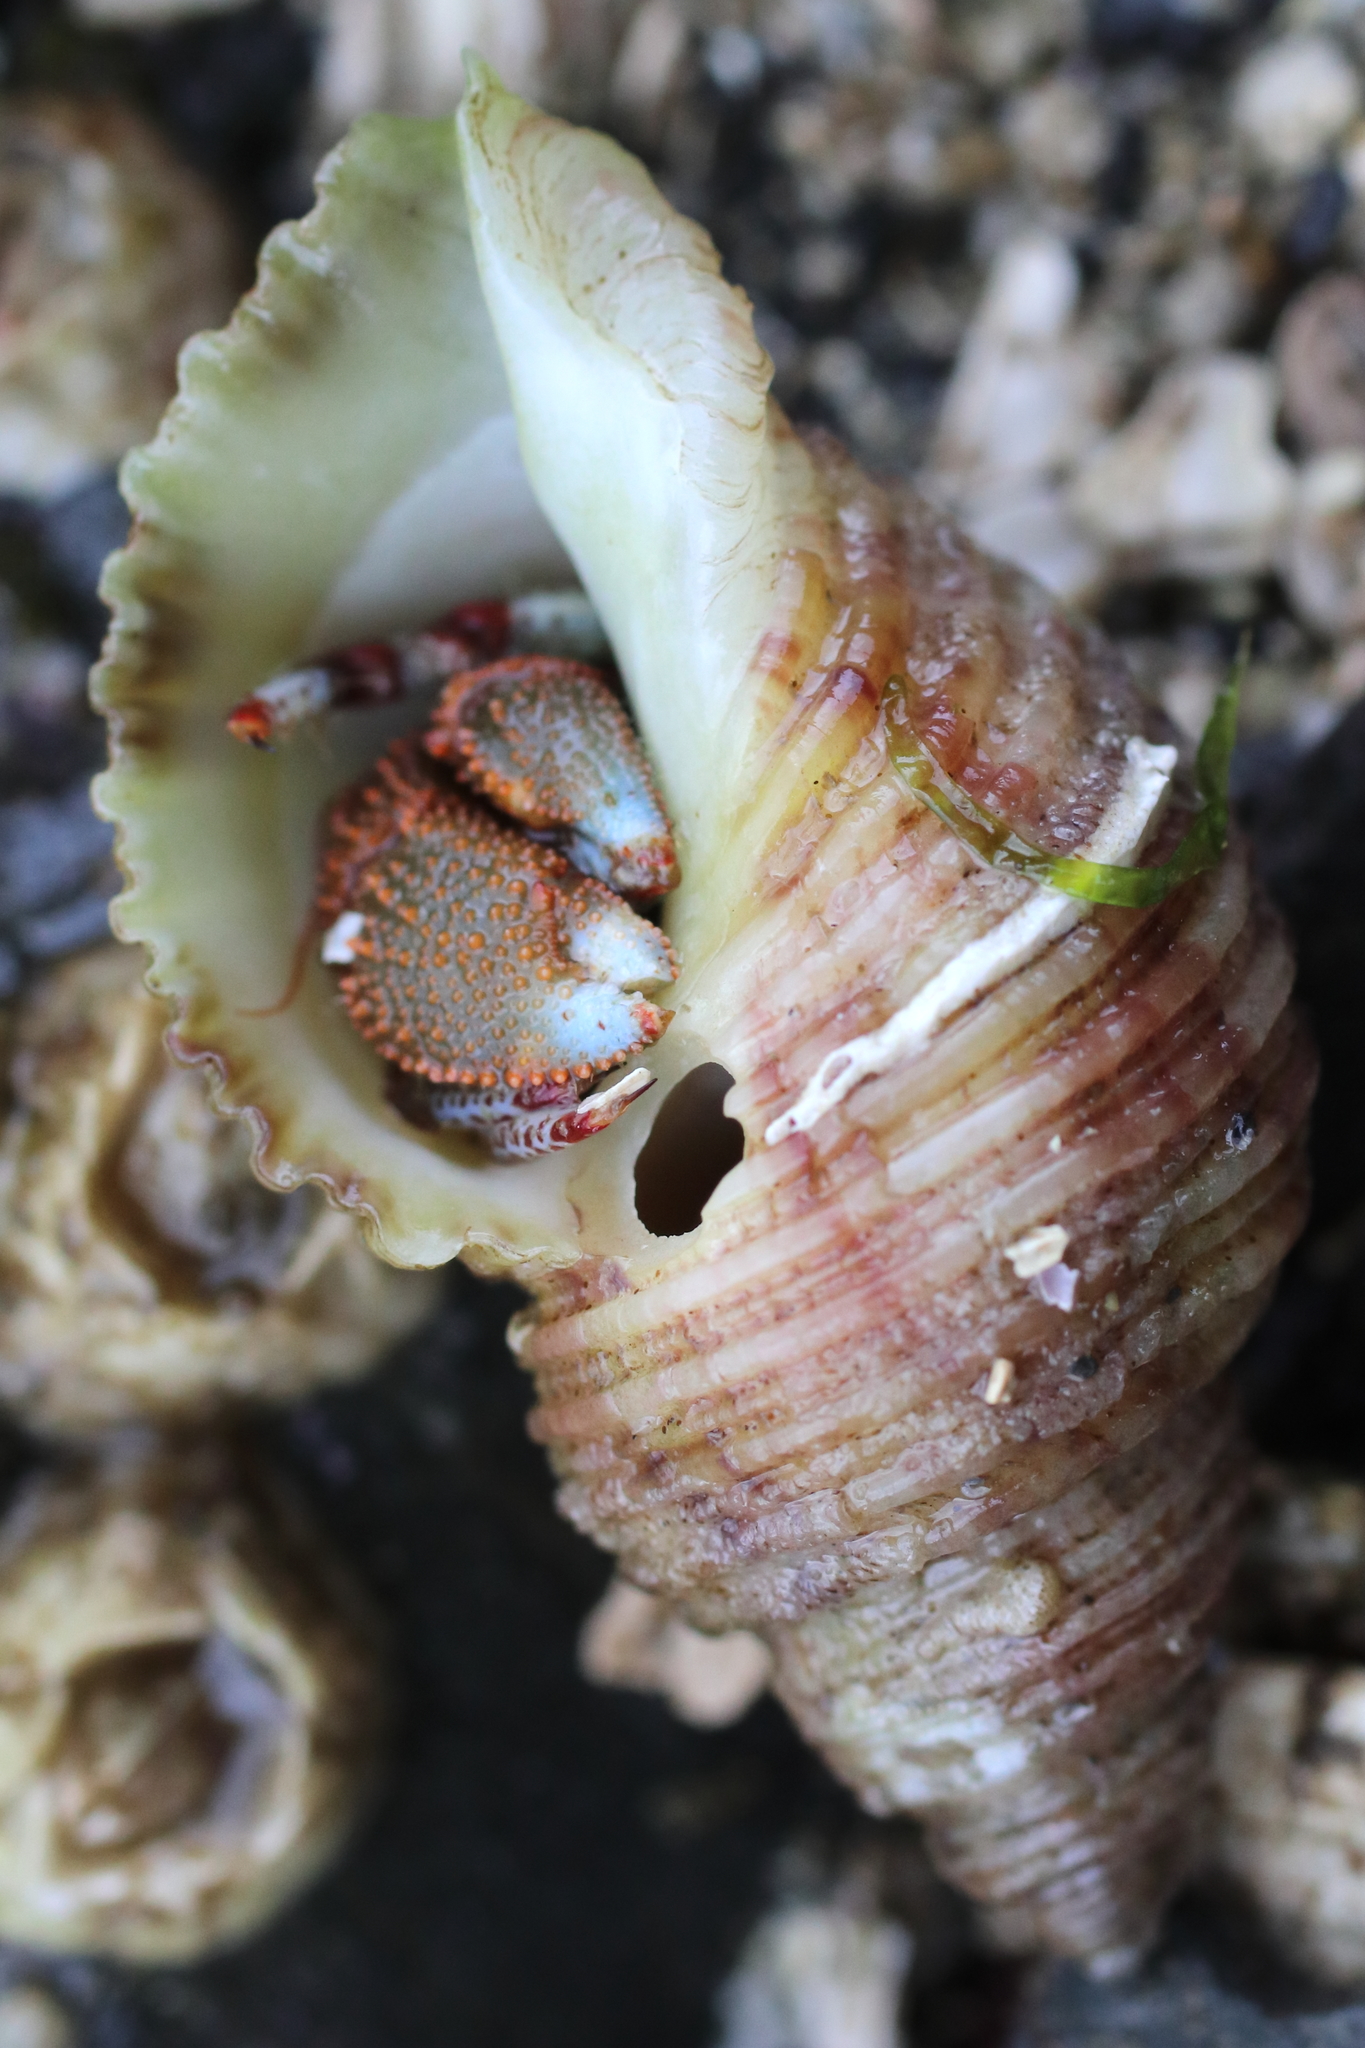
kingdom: Animalia
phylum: Arthropoda
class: Malacostraca
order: Decapoda
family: Paguridae
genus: Pagurus
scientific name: Pagurus beringanus
